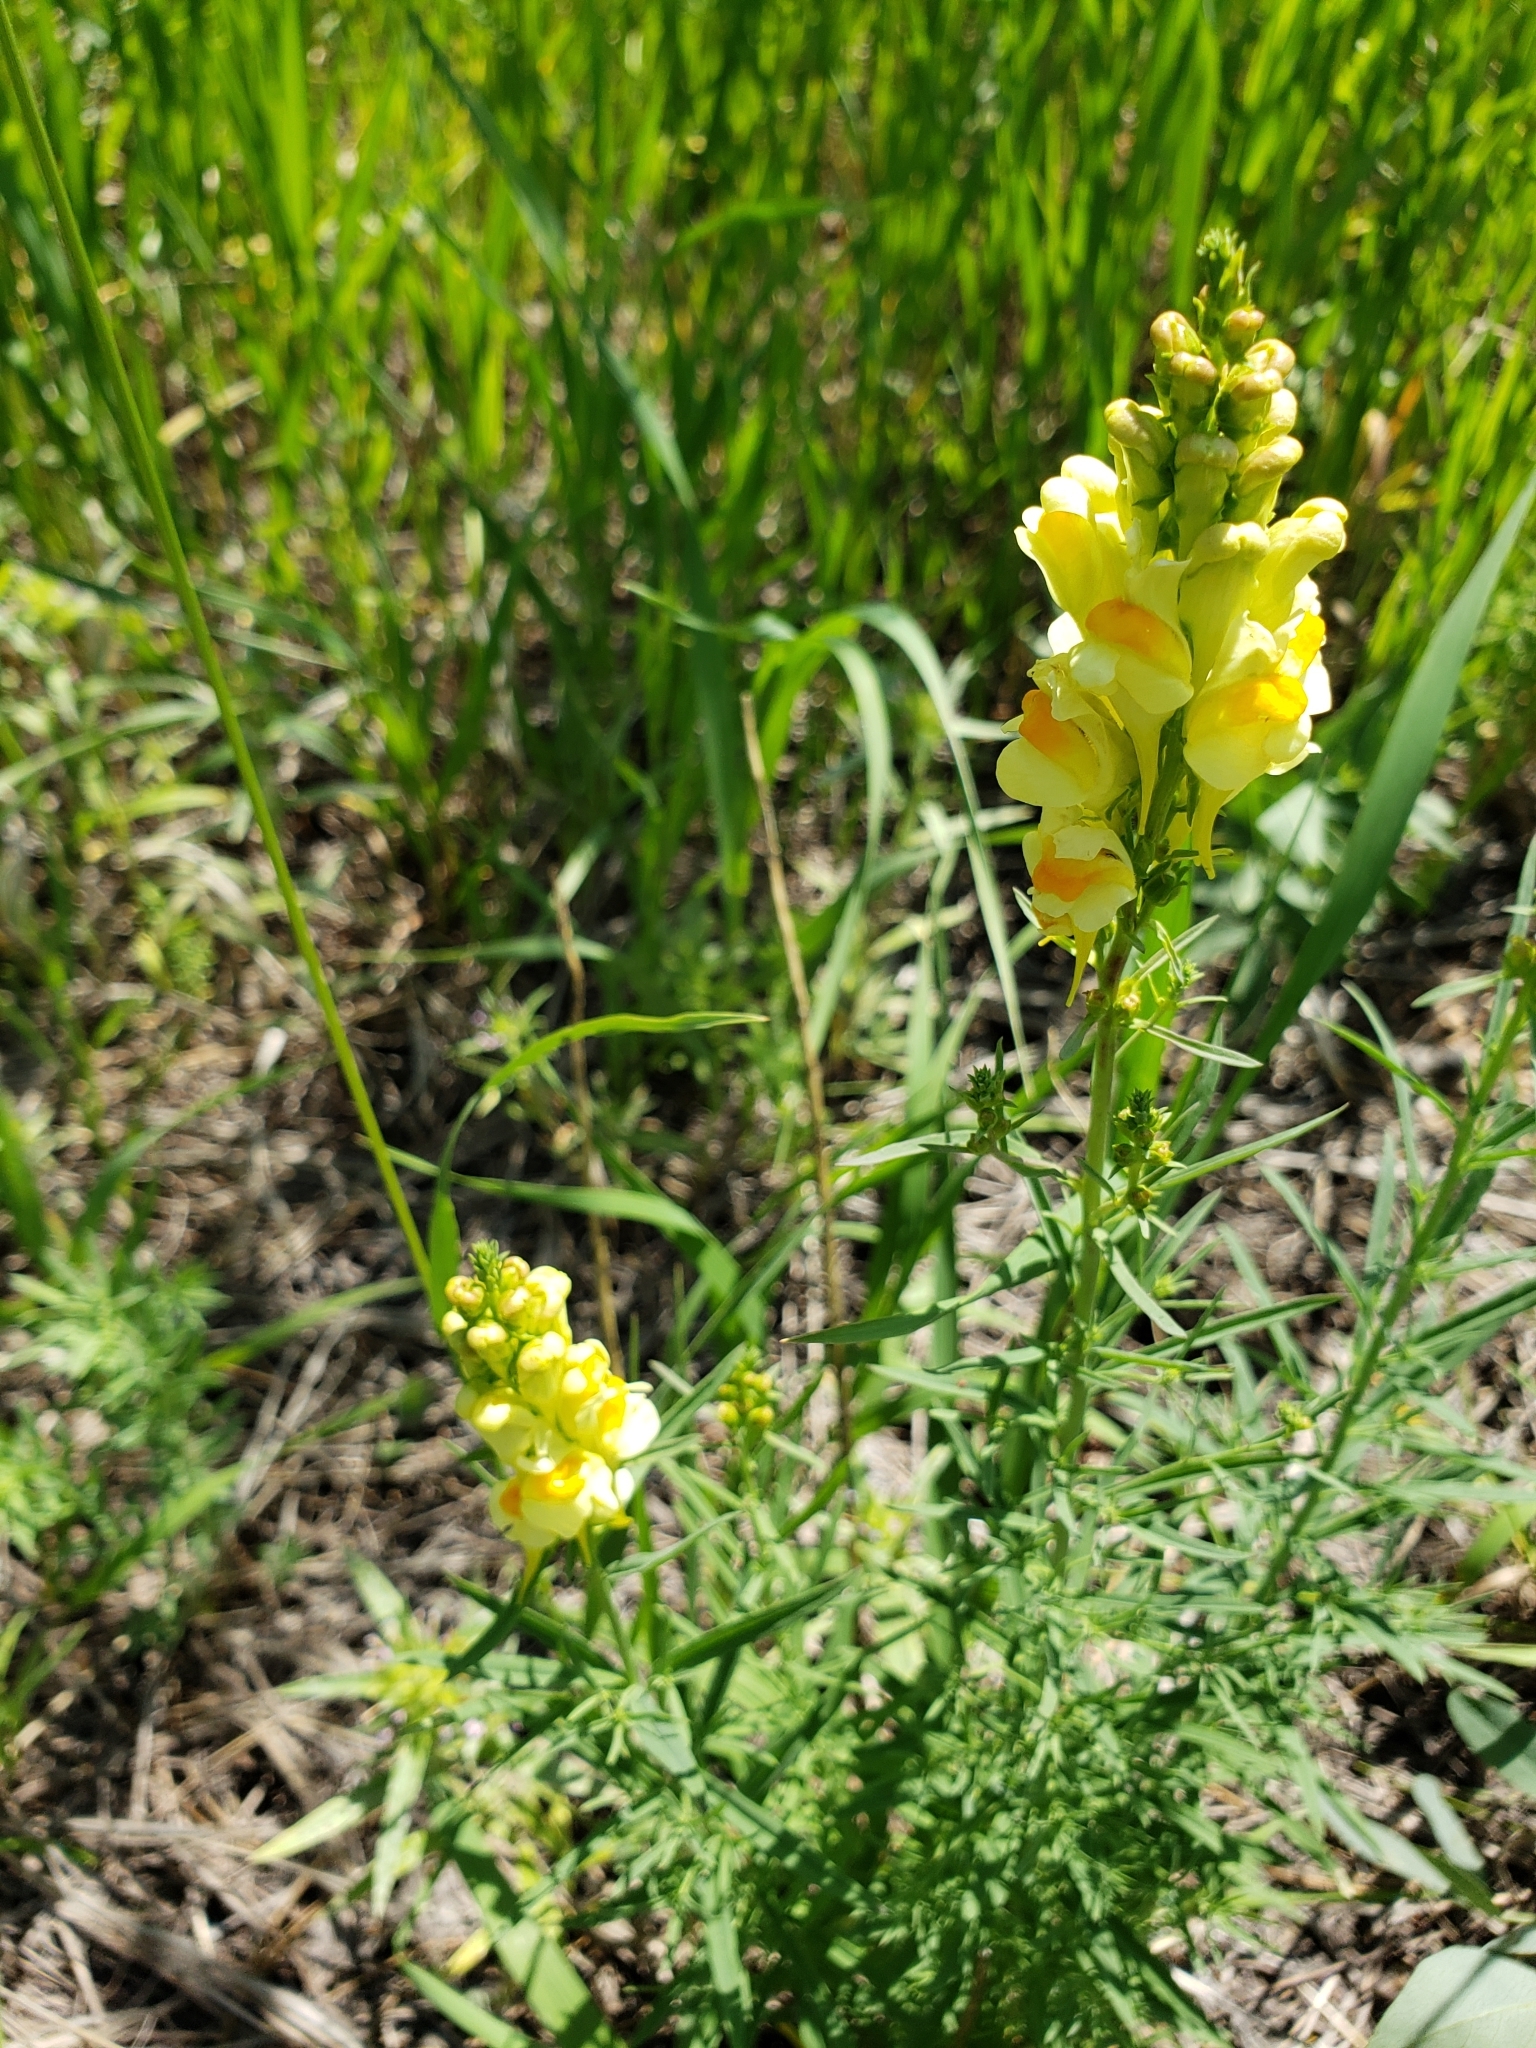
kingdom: Plantae
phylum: Tracheophyta
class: Magnoliopsida
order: Lamiales
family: Plantaginaceae
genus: Linaria
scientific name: Linaria vulgaris
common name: Butter and eggs
